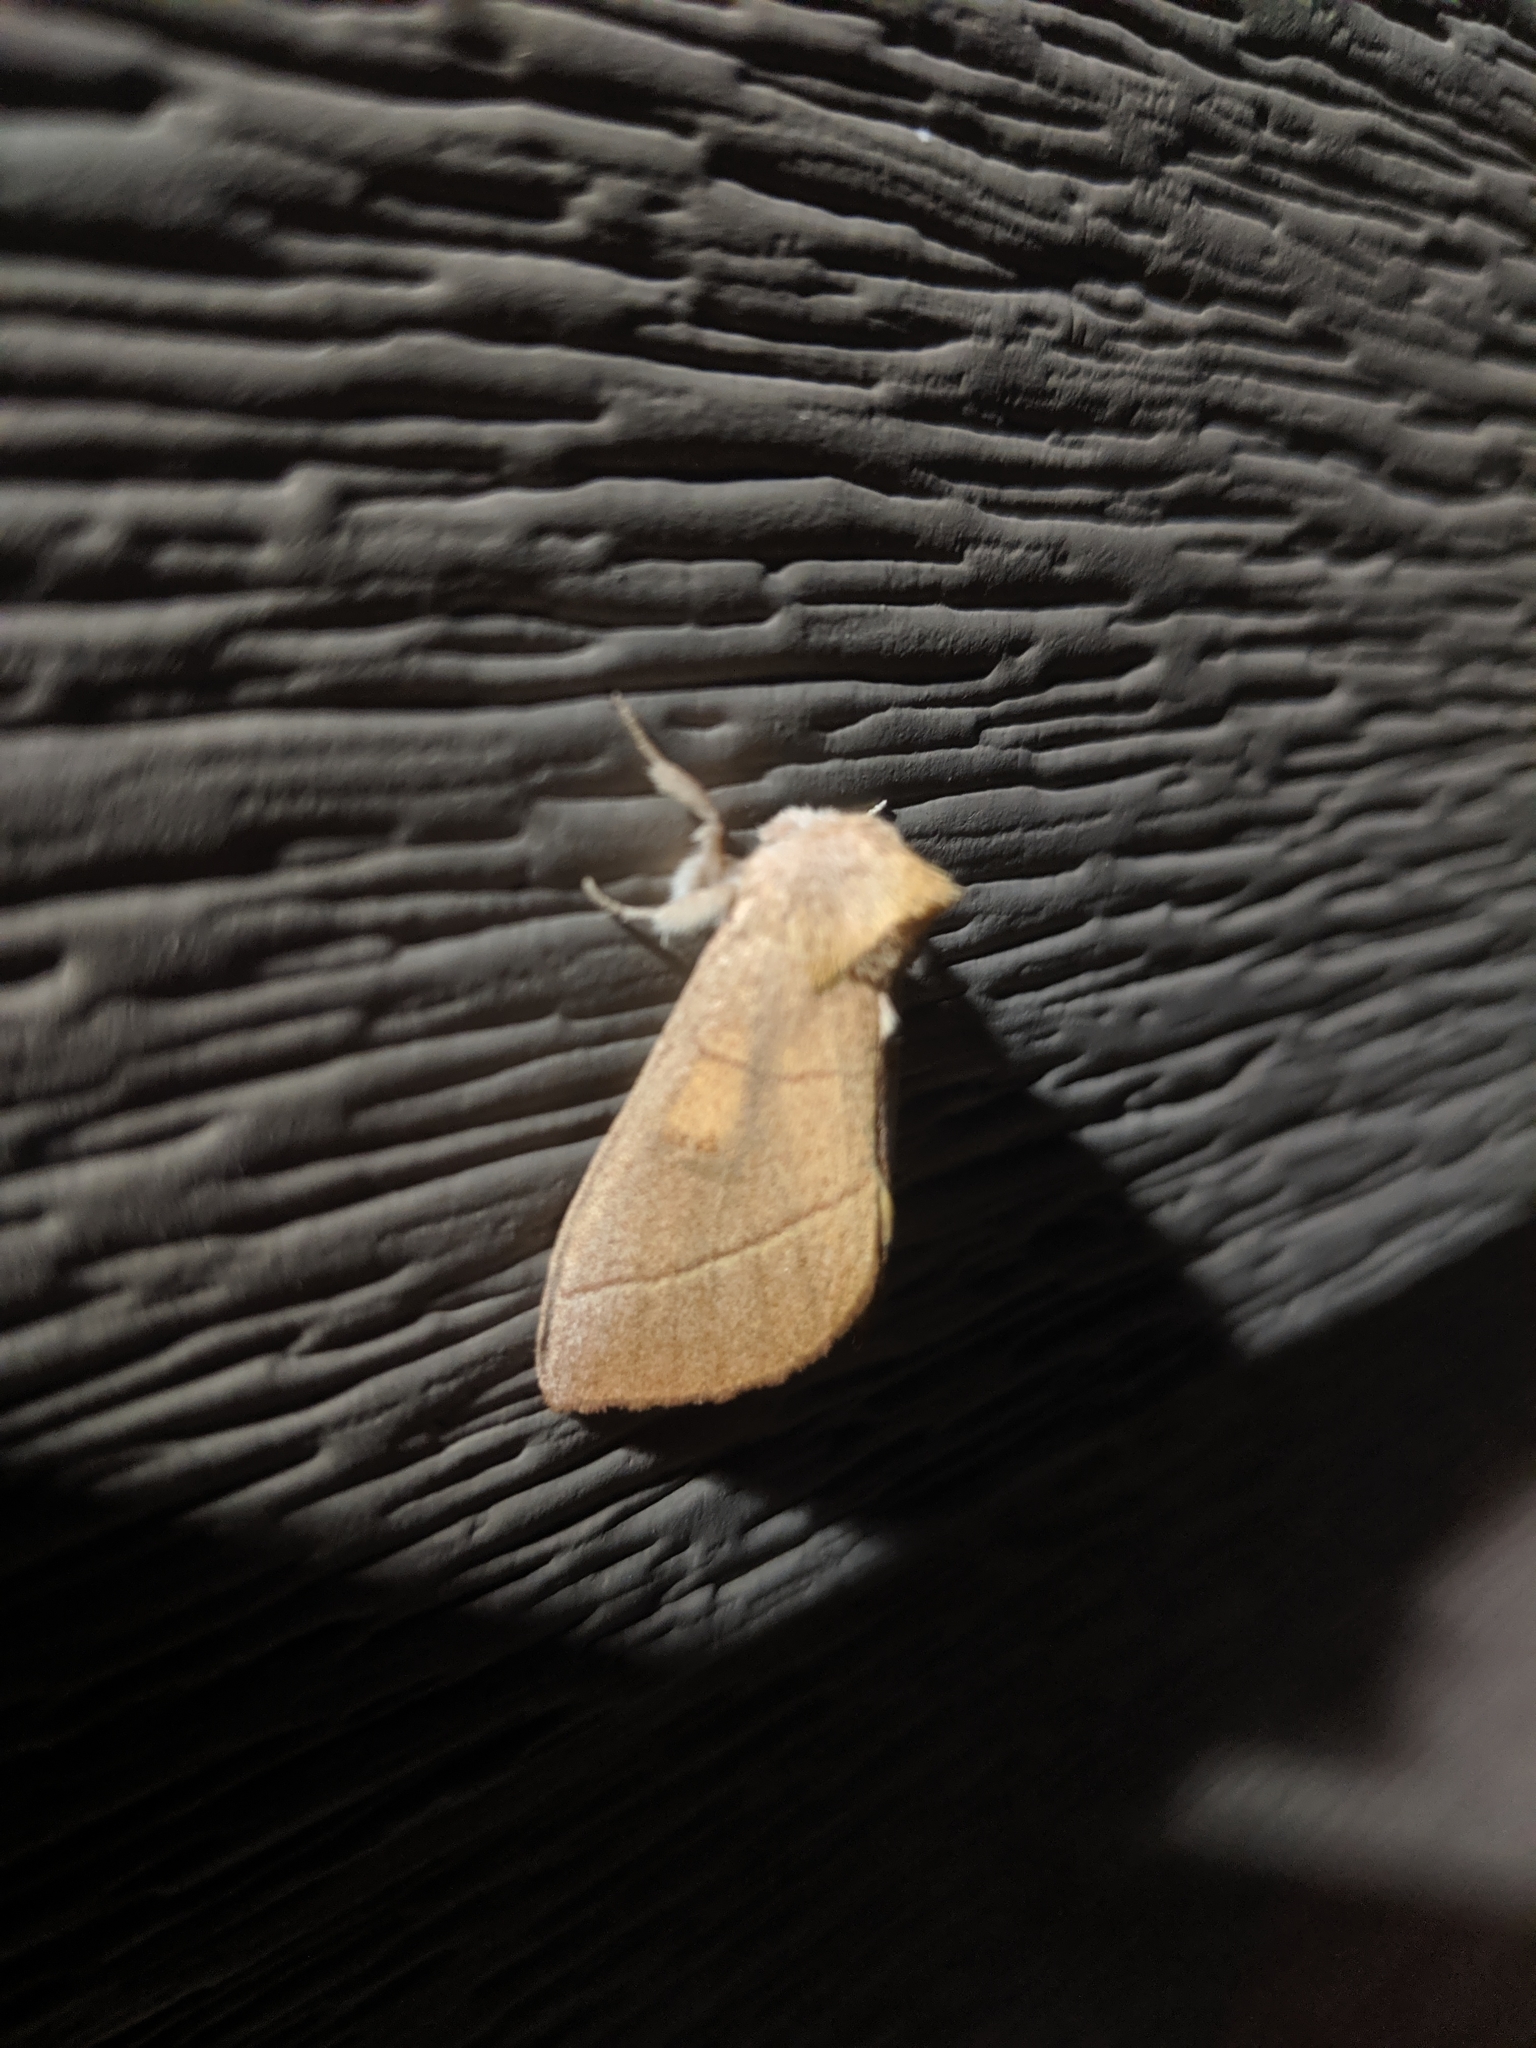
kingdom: Animalia
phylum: Arthropoda
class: Insecta
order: Lepidoptera
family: Notodontidae
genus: Nadata
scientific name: Nadata gibbosa
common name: White-dotted prominent
